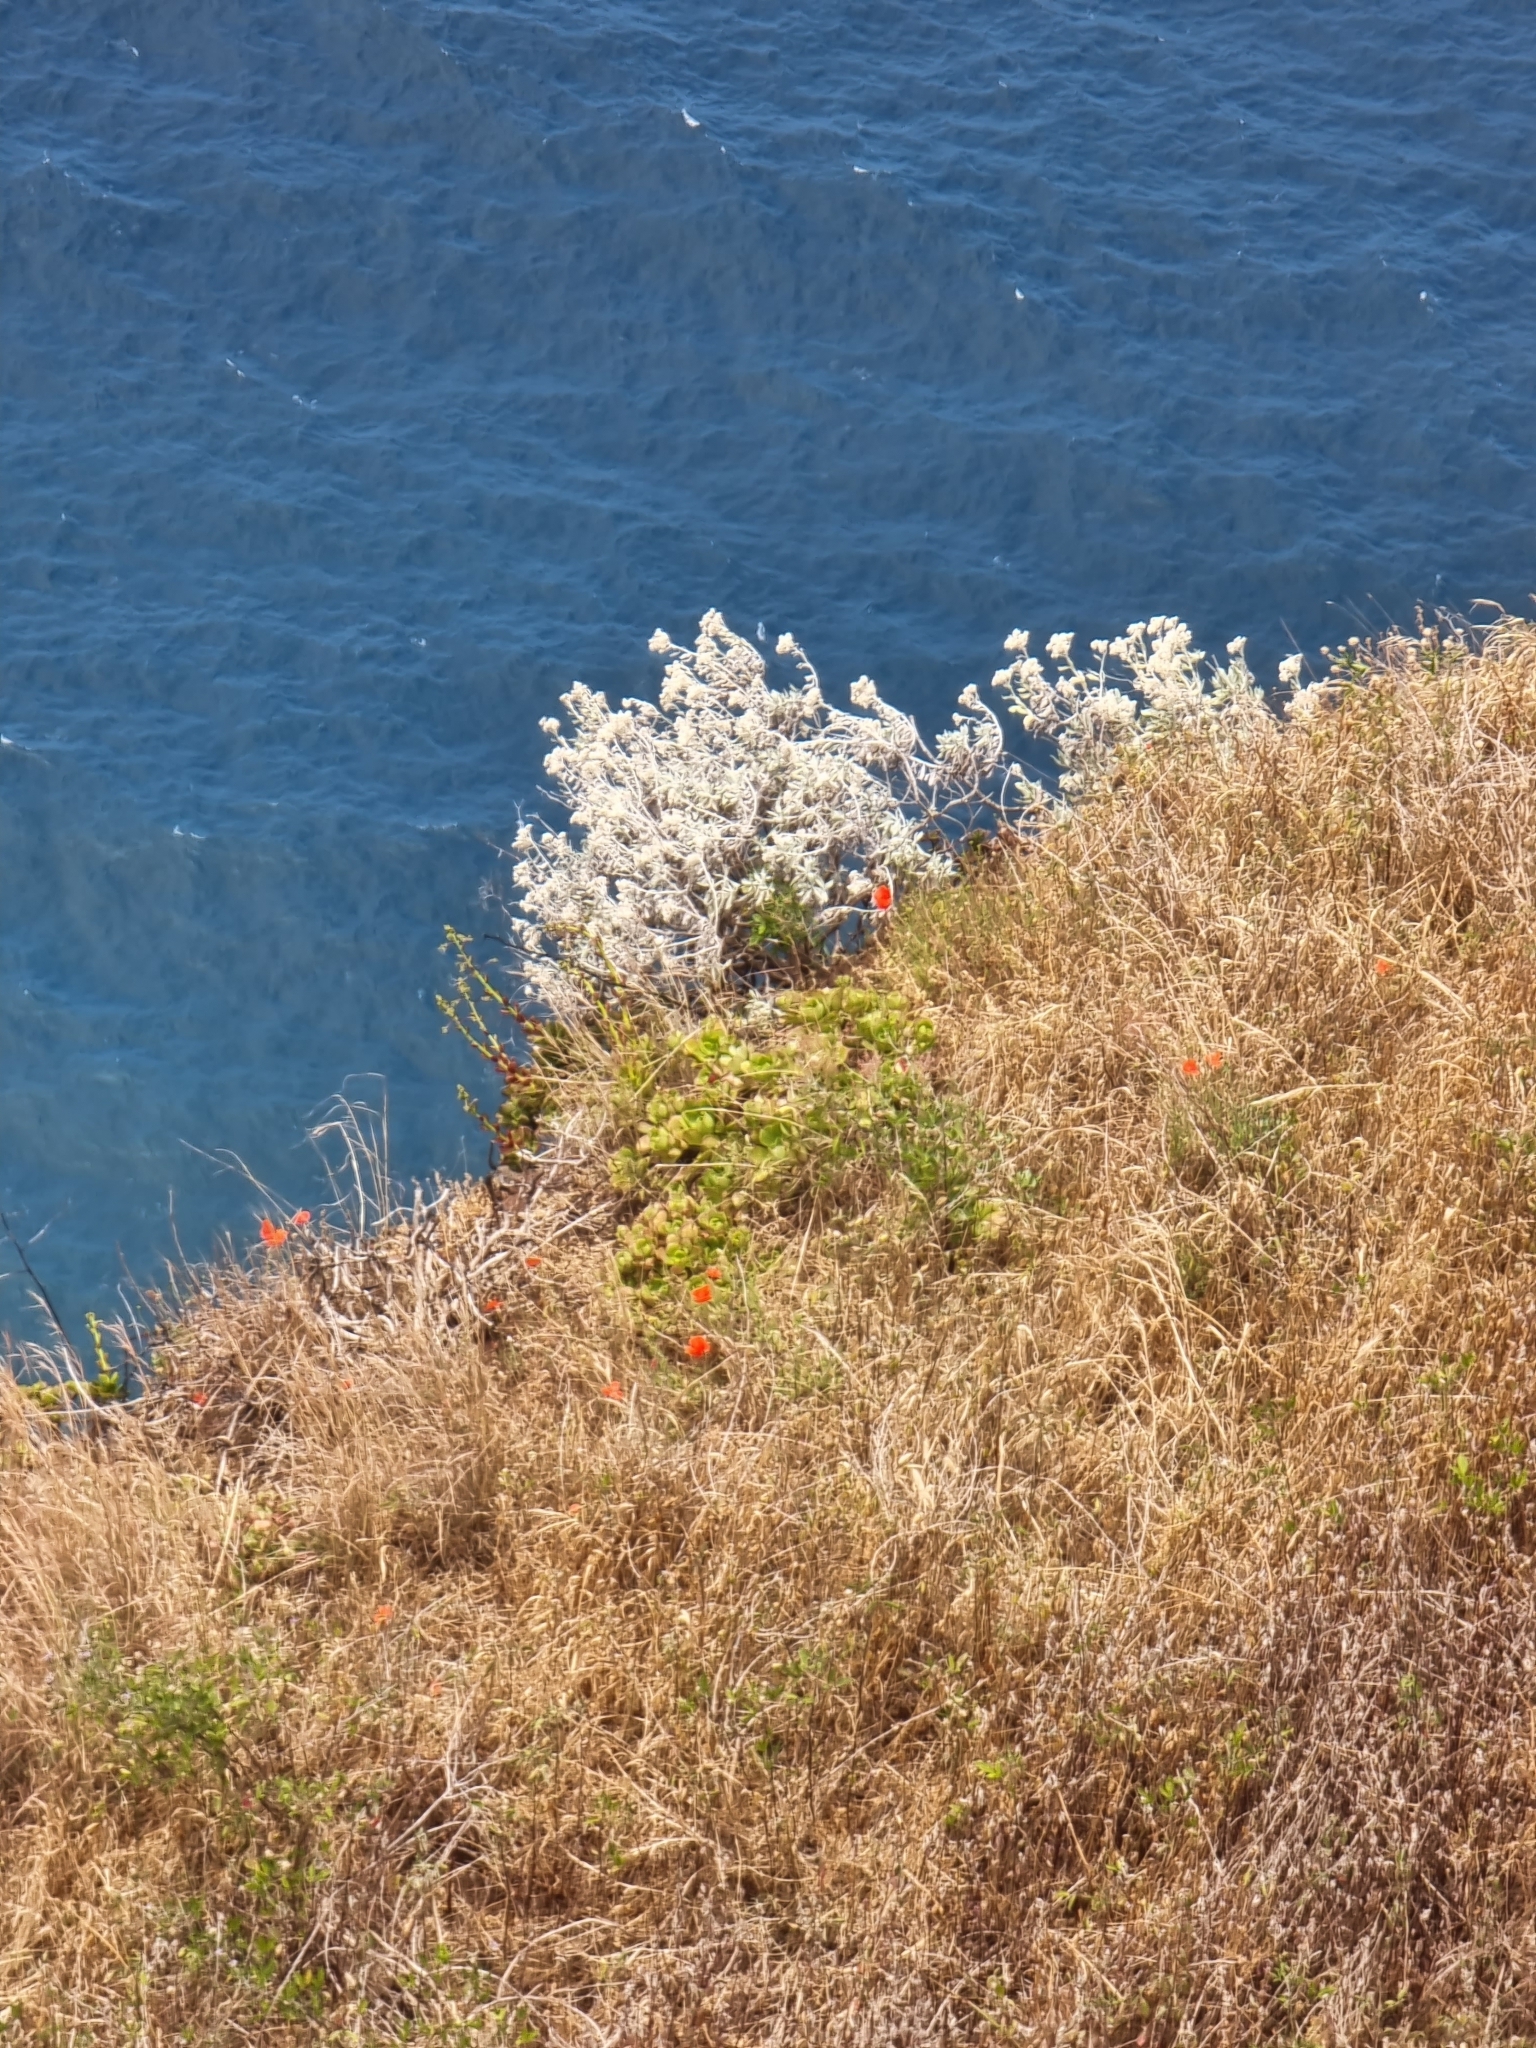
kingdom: Plantae
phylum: Tracheophyta
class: Magnoliopsida
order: Asterales
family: Asteraceae
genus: Helichrysum
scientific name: Helichrysum melaleucum
